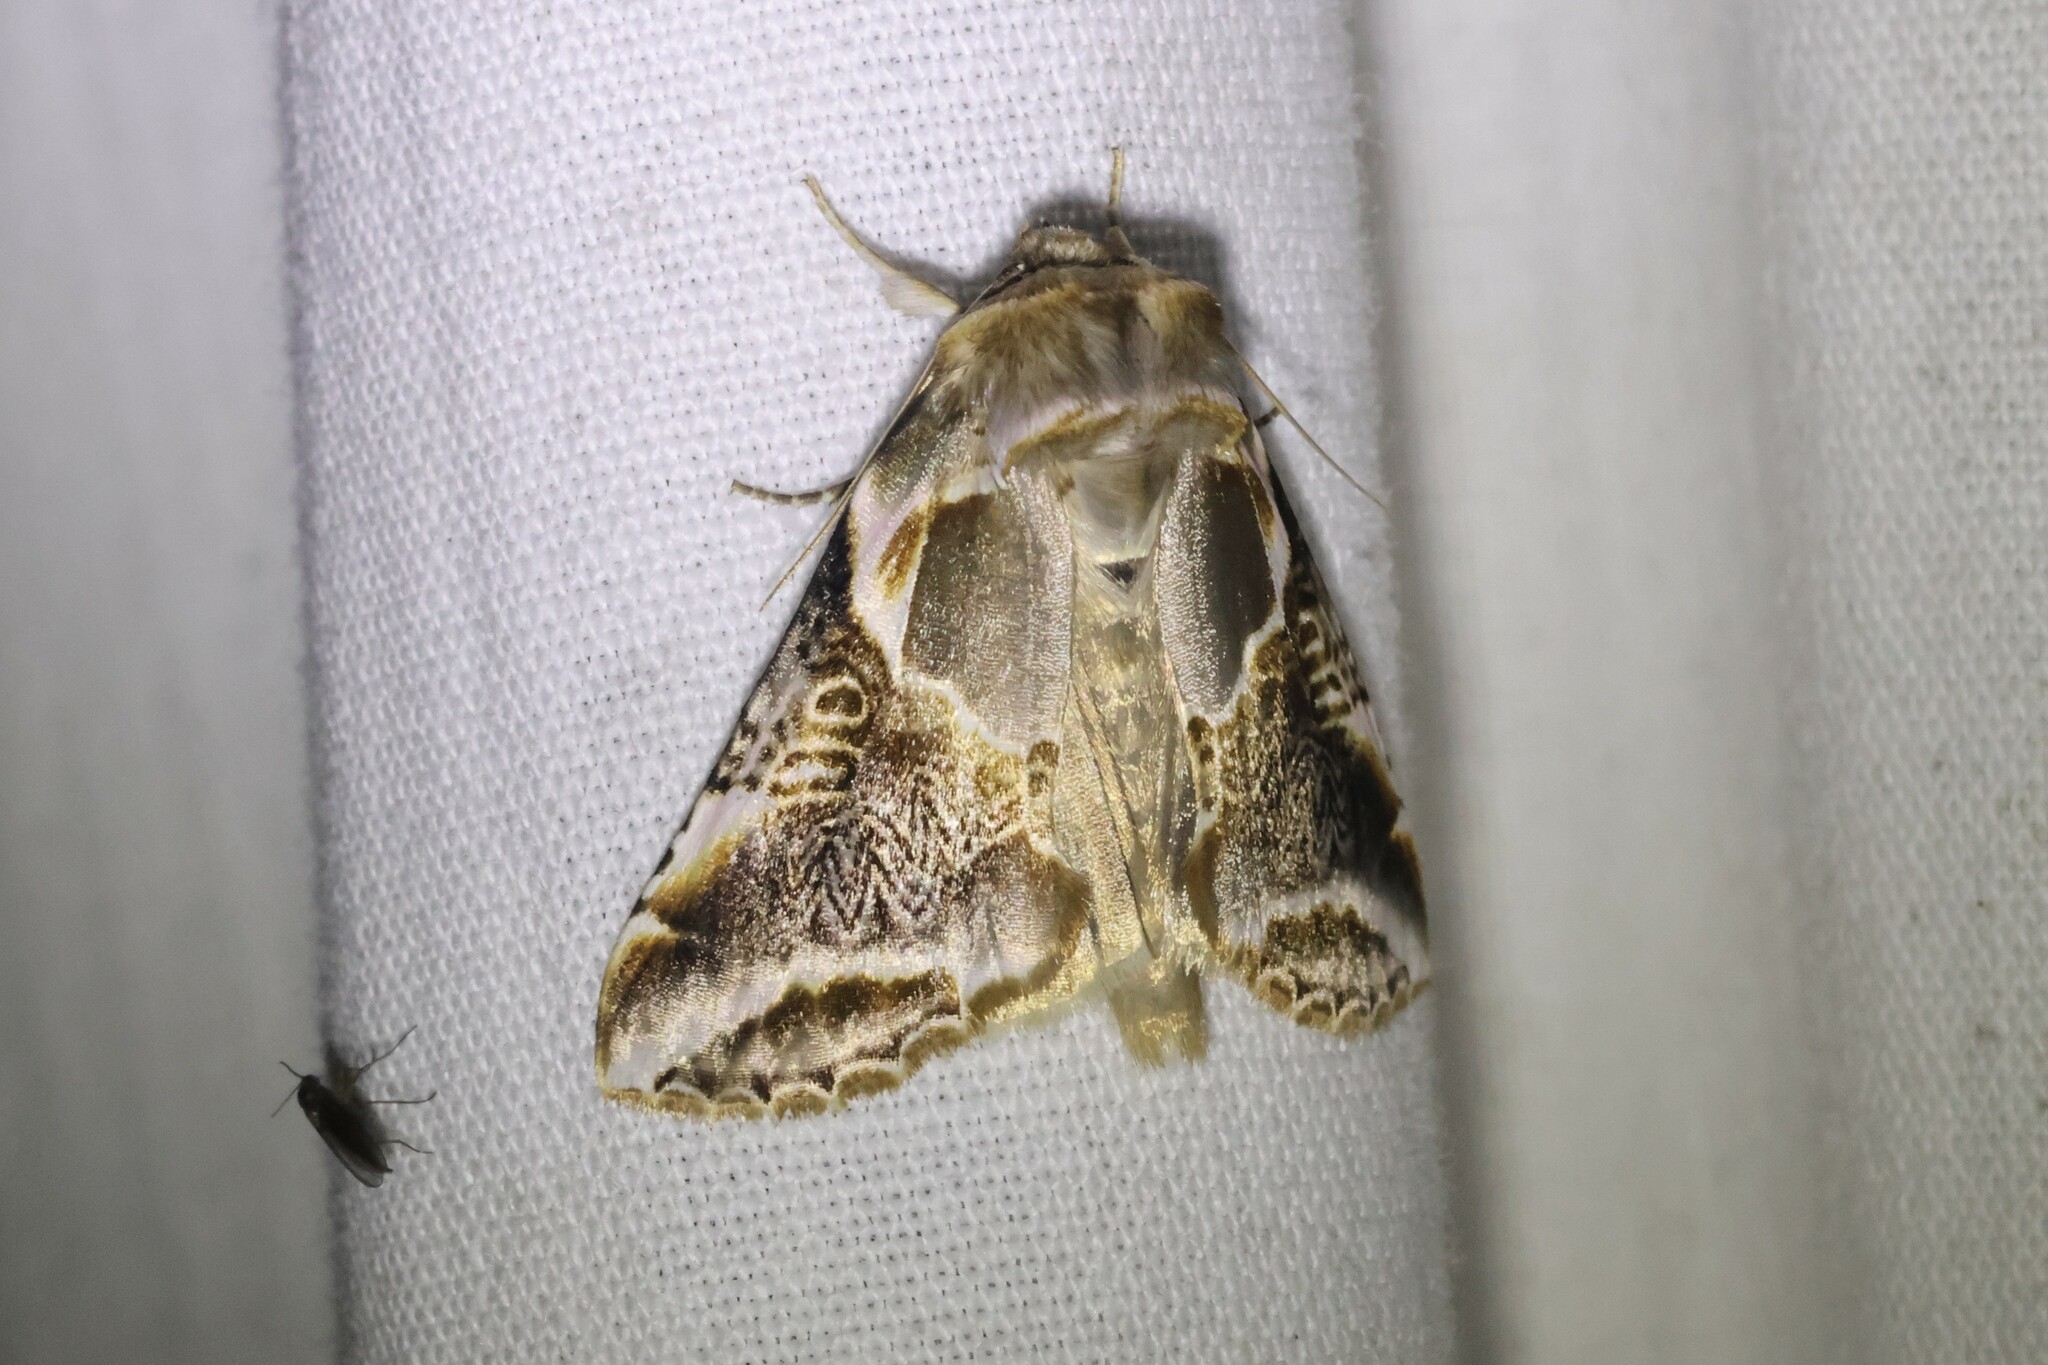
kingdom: Animalia
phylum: Arthropoda
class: Insecta
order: Lepidoptera
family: Drepanidae
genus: Habrosyne
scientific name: Habrosyne scripta
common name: Lettered habrosyne moth
